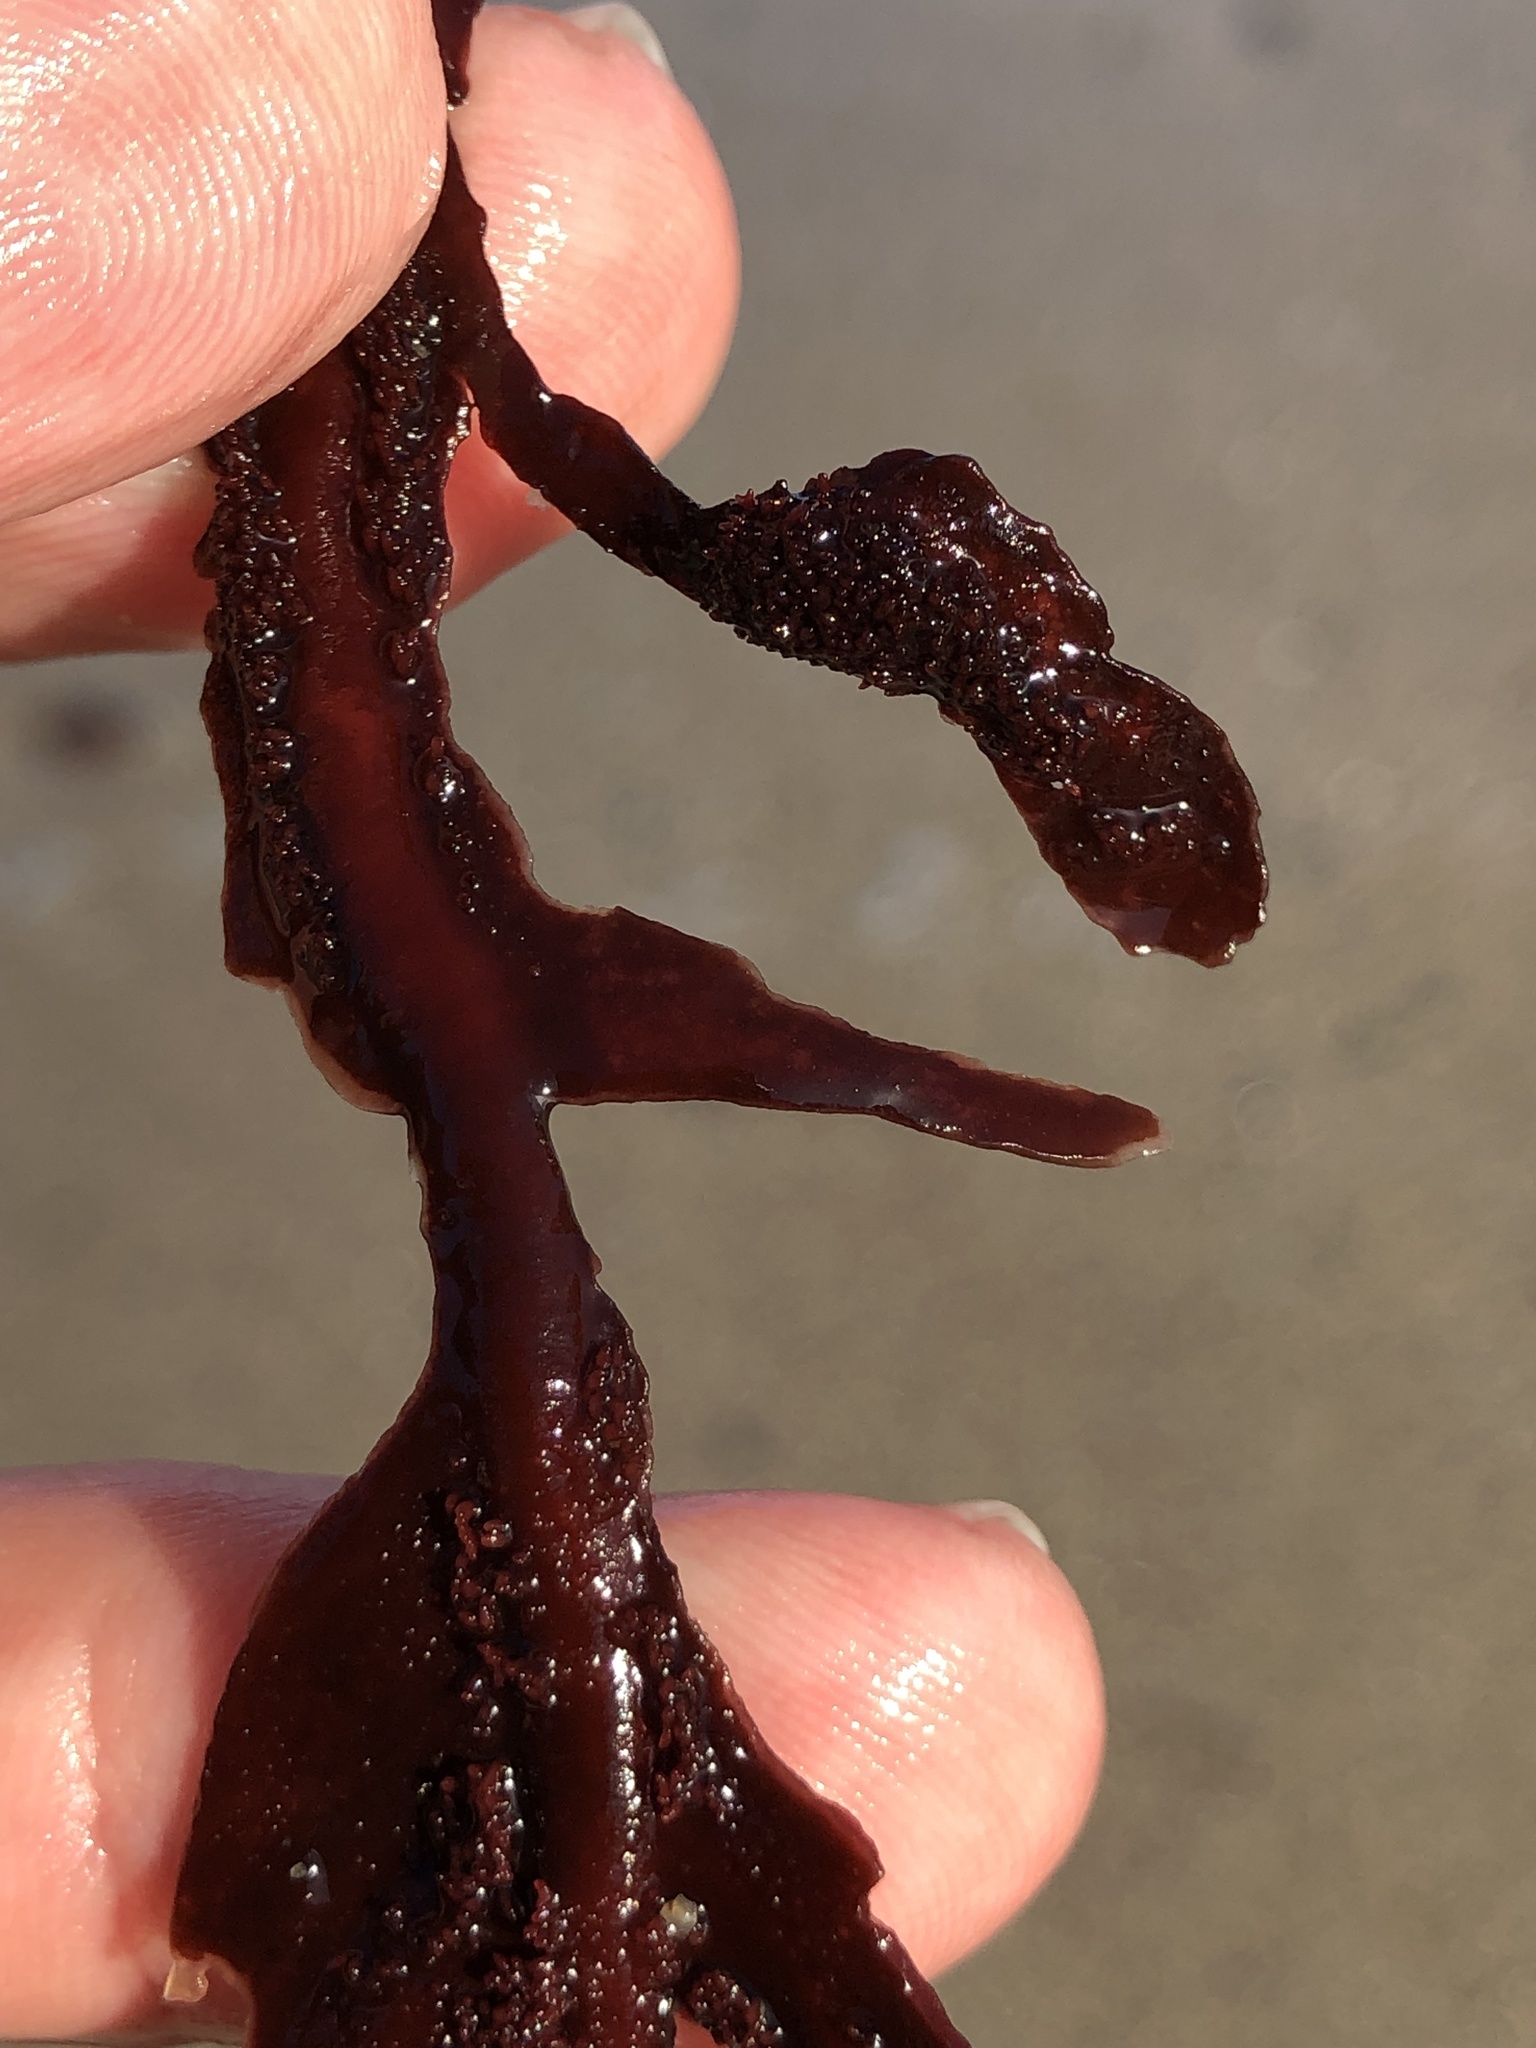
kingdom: Plantae
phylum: Rhodophyta
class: Florideophyceae
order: Gigartinales
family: Kallymeniaceae
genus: Erythrophyllum
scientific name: Erythrophyllum delesserioides
